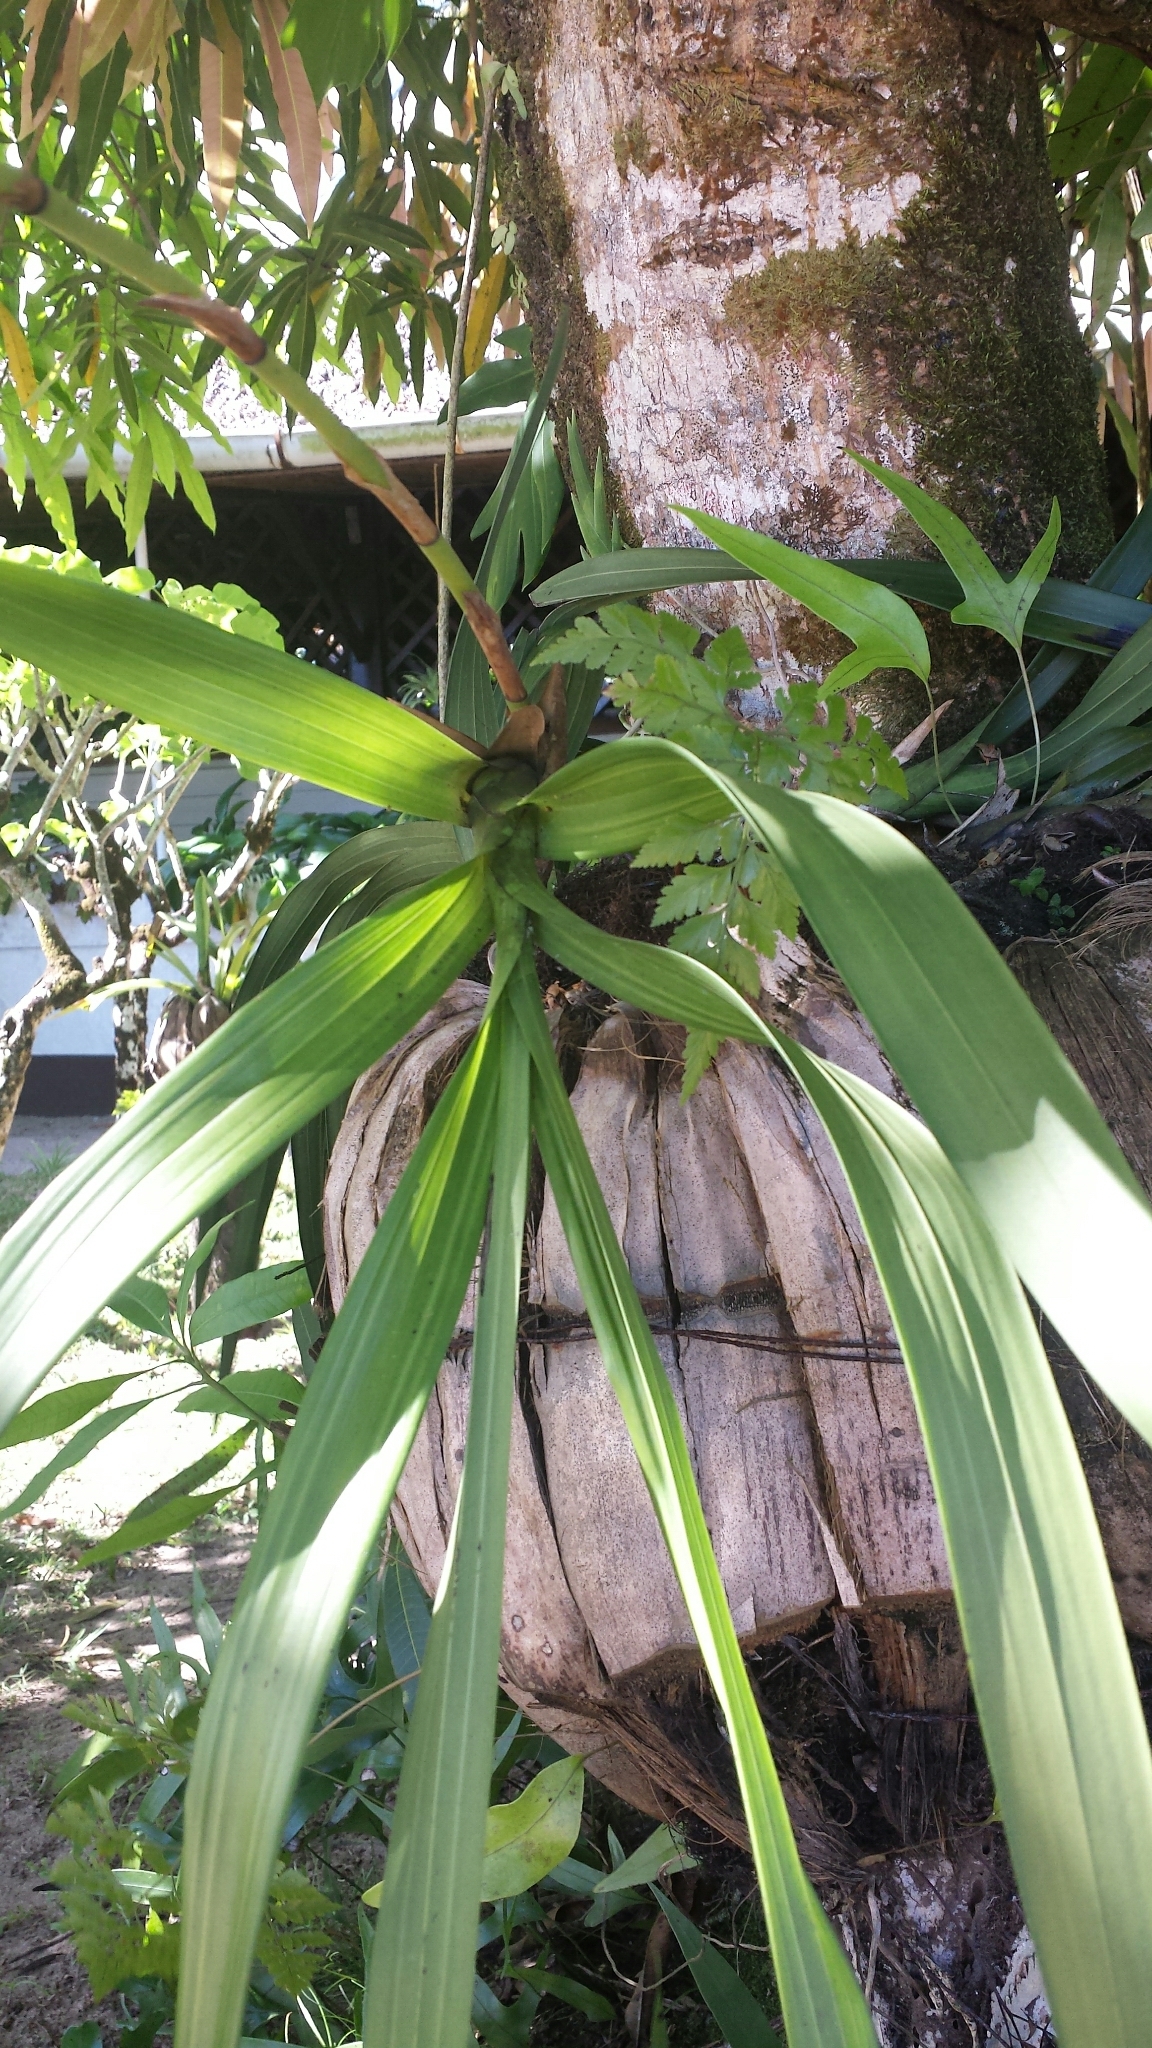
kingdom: Plantae
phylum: Tracheophyta
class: Liliopsida
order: Asparagales
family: Orchidaceae
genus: Eulophia
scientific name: Eulophia falcigera
